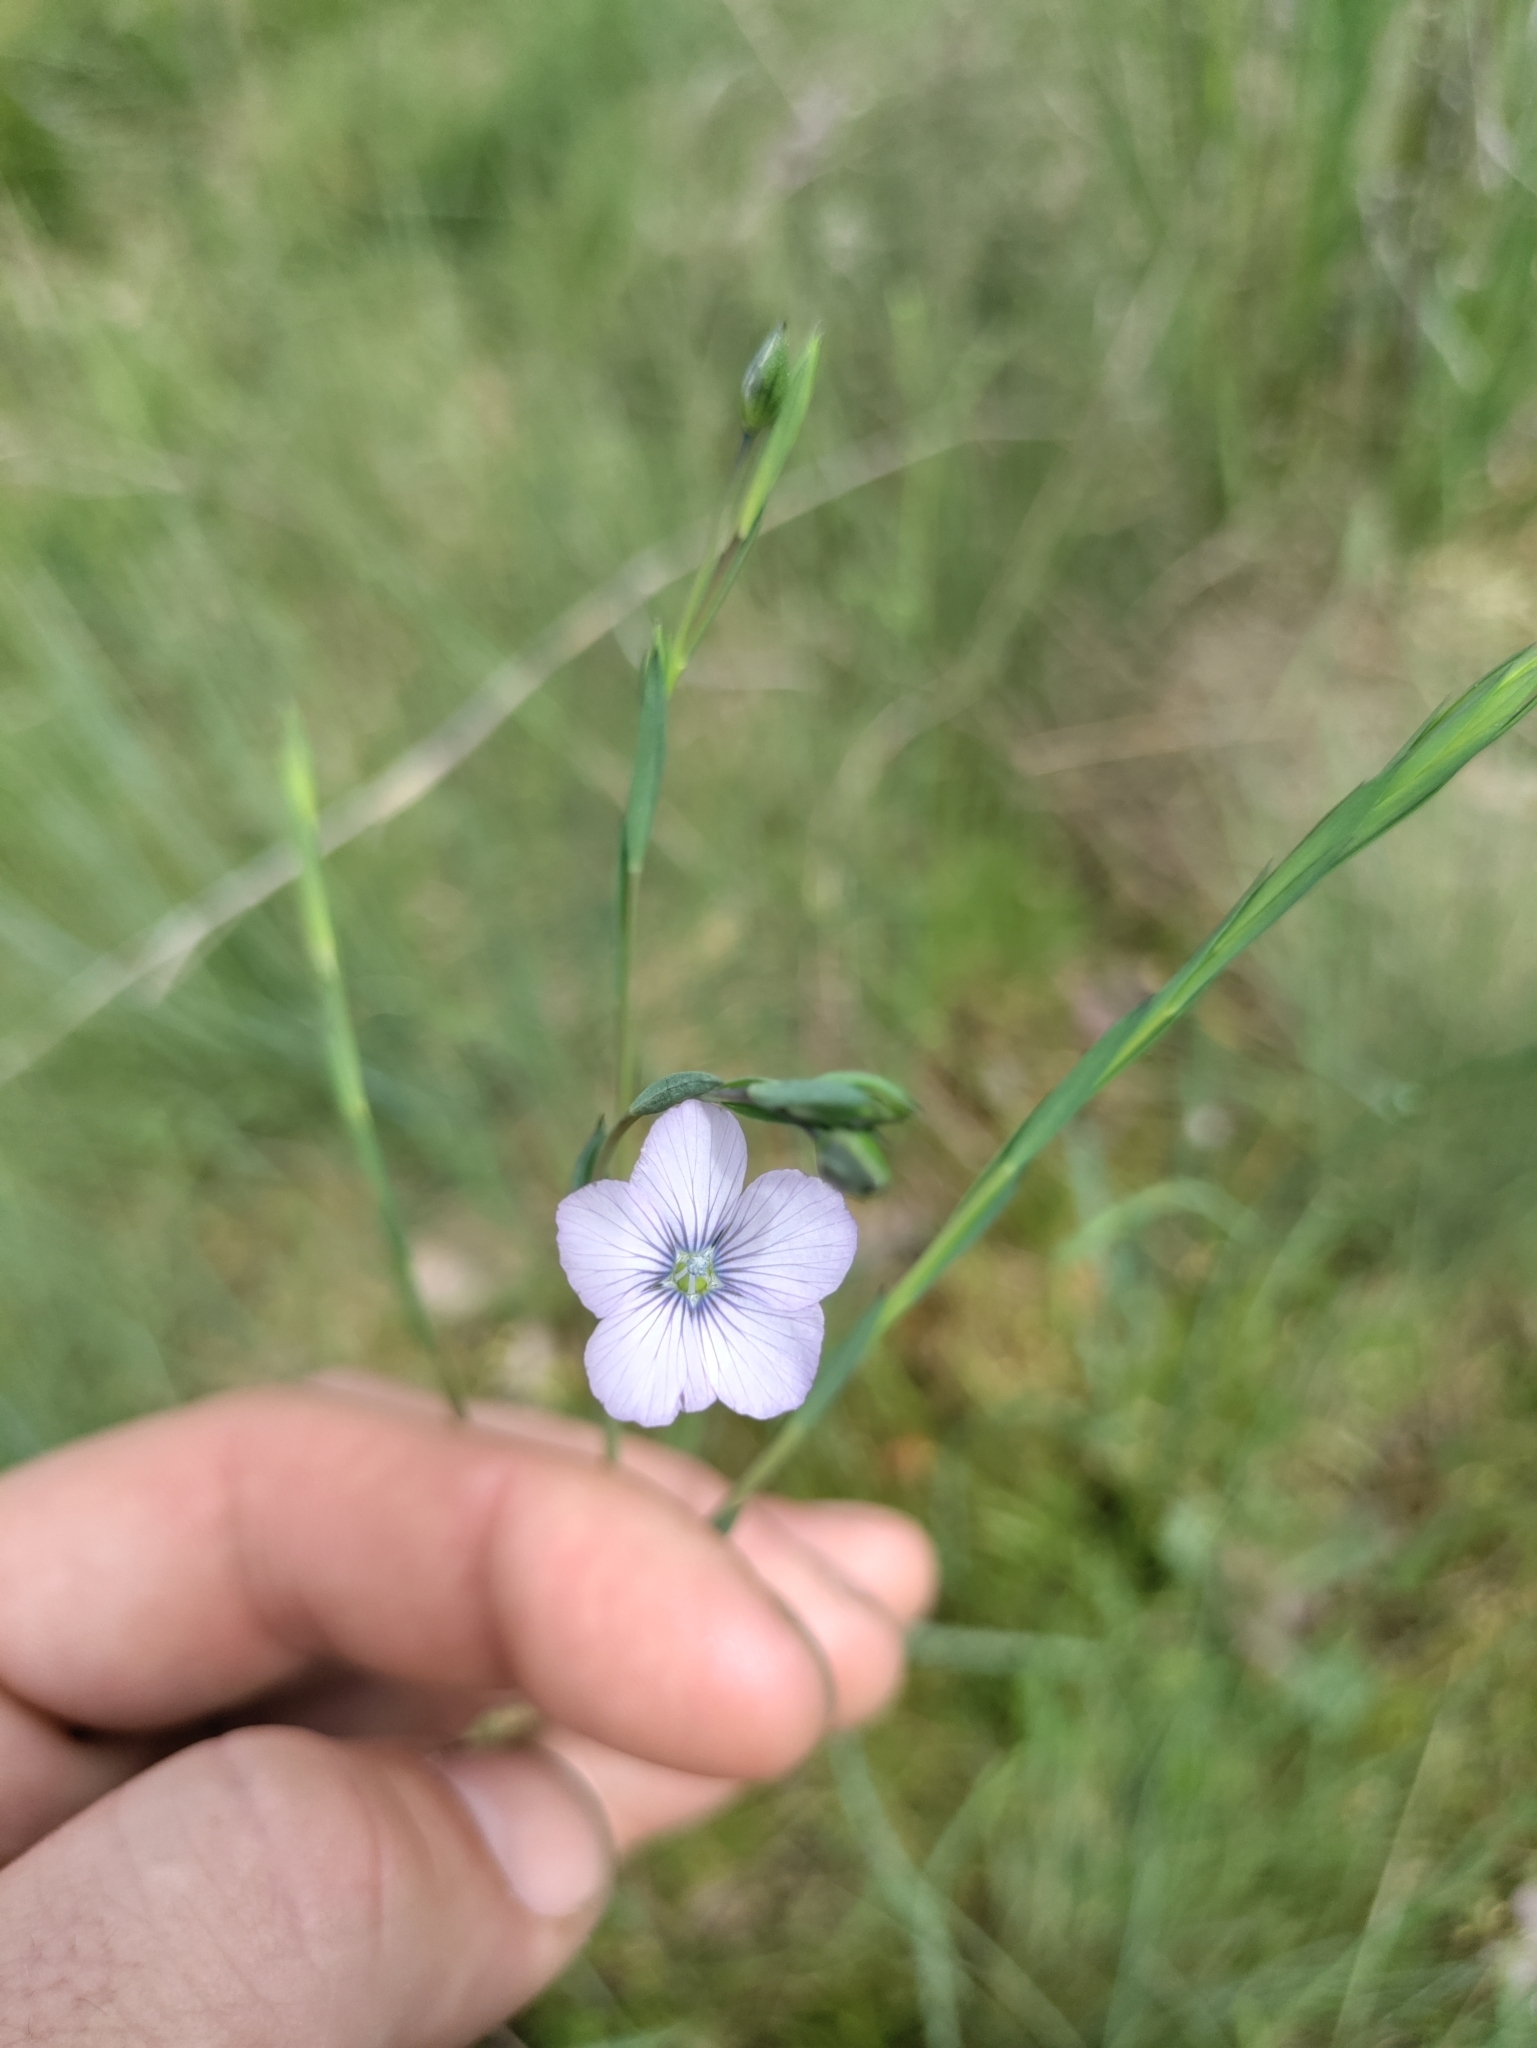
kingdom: Plantae
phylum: Tracheophyta
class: Magnoliopsida
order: Malpighiales
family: Linaceae
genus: Linum
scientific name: Linum bienne
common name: Pale flax
